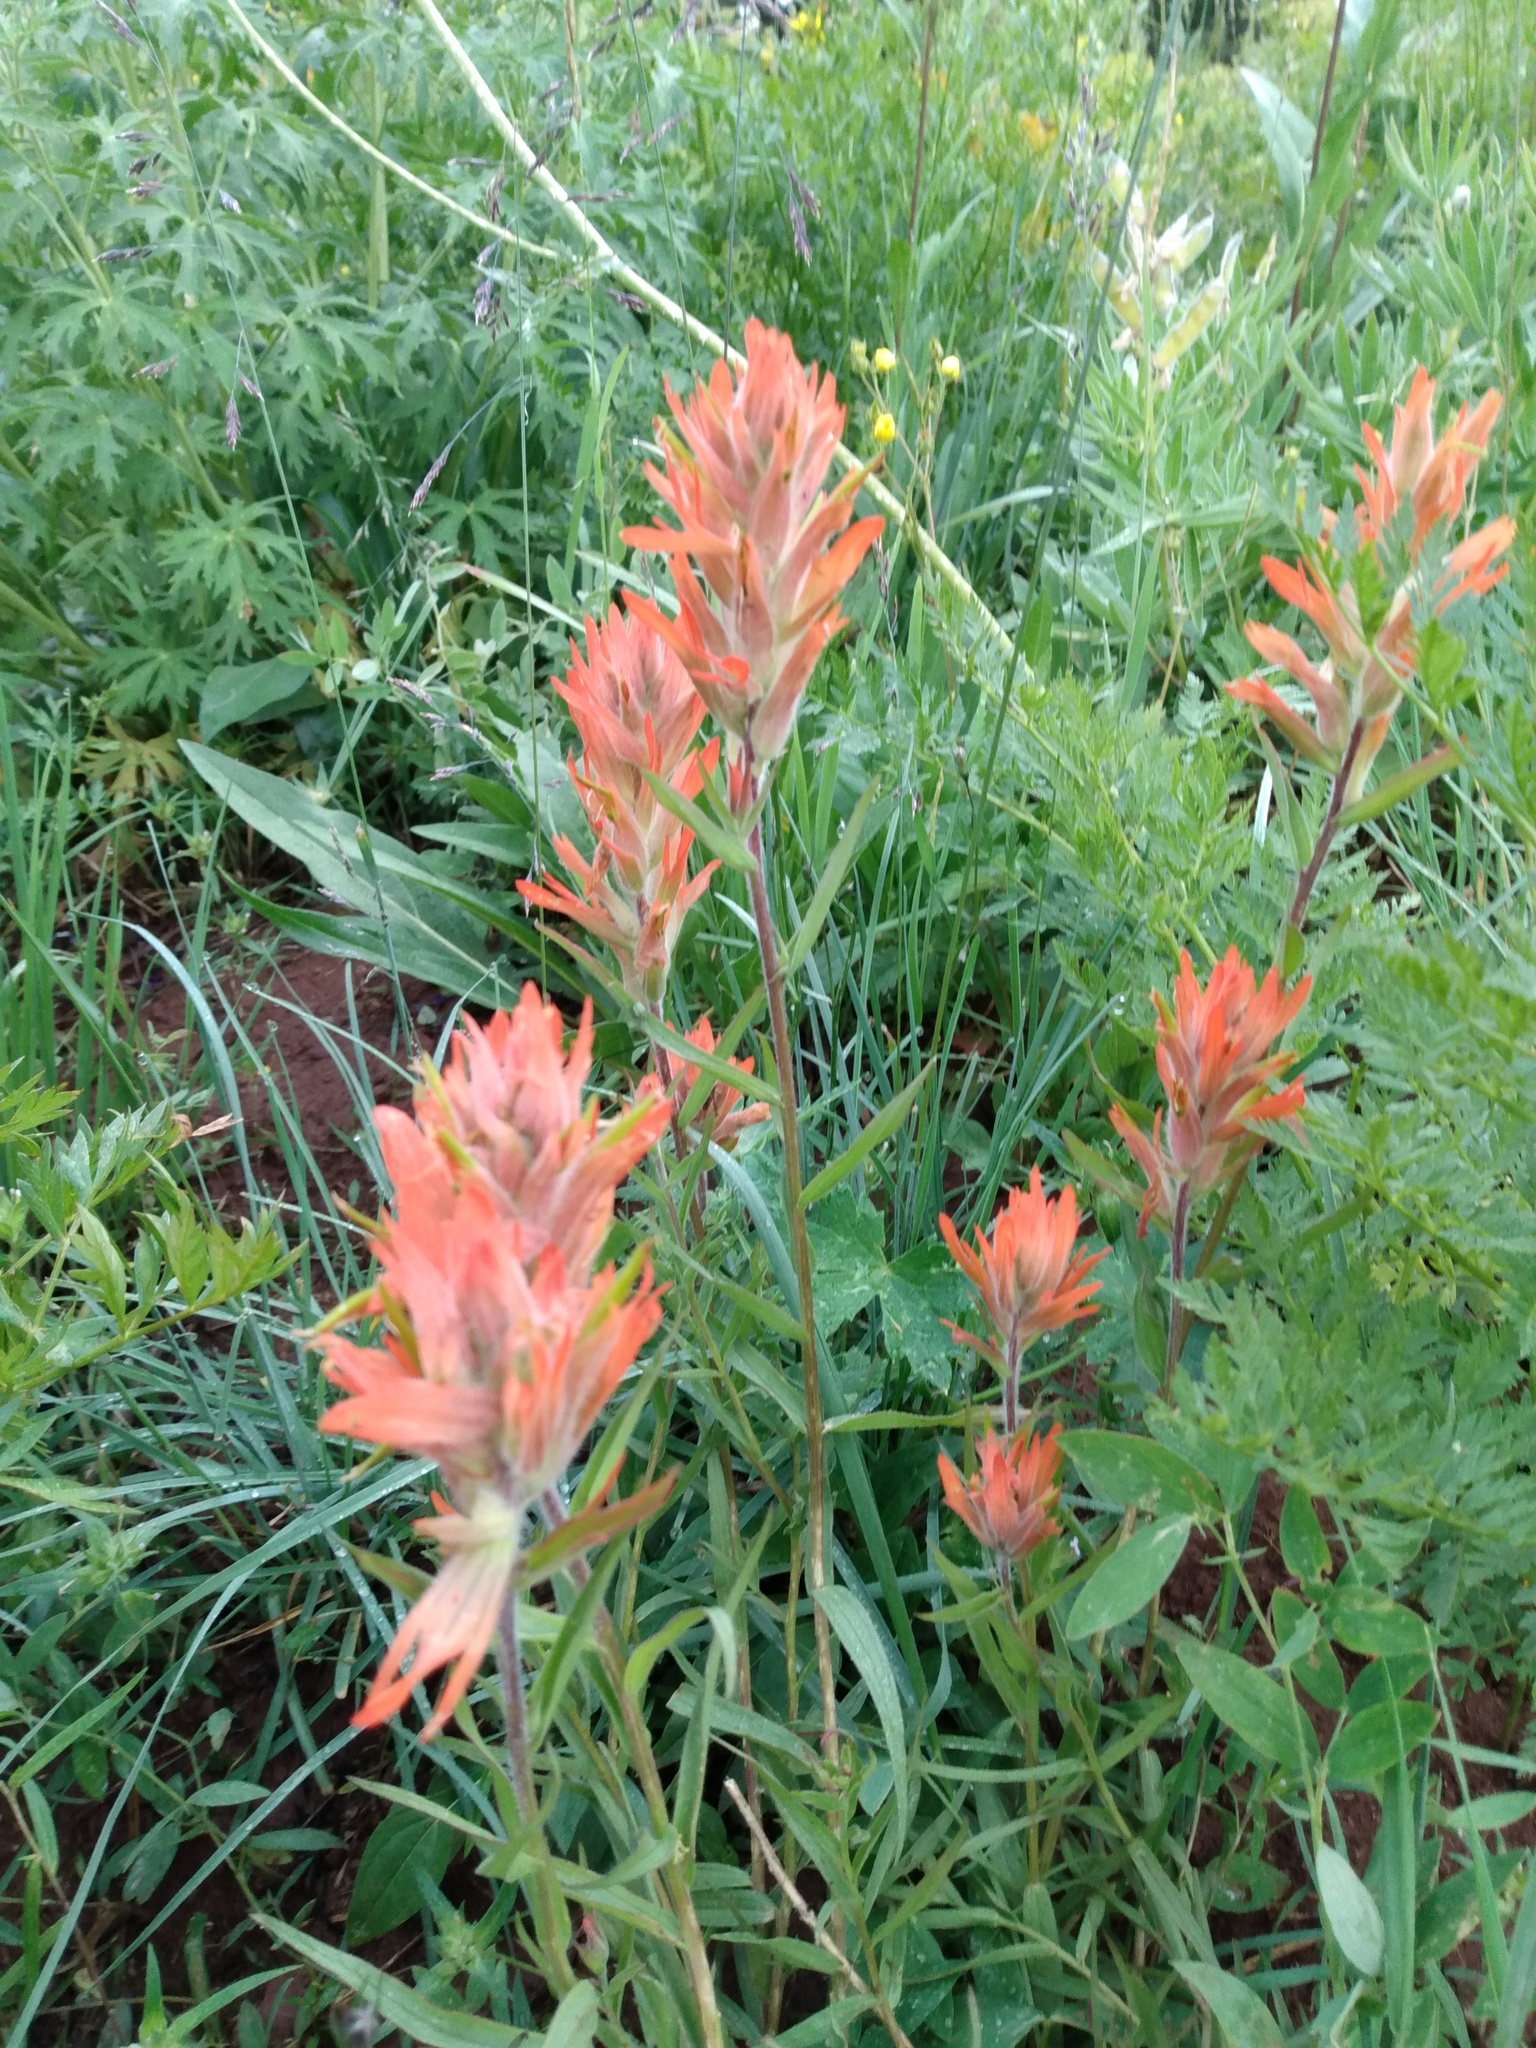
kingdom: Plantae
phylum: Tracheophyta
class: Magnoliopsida
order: Lamiales
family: Orobanchaceae
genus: Castilleja
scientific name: Castilleja miniata
